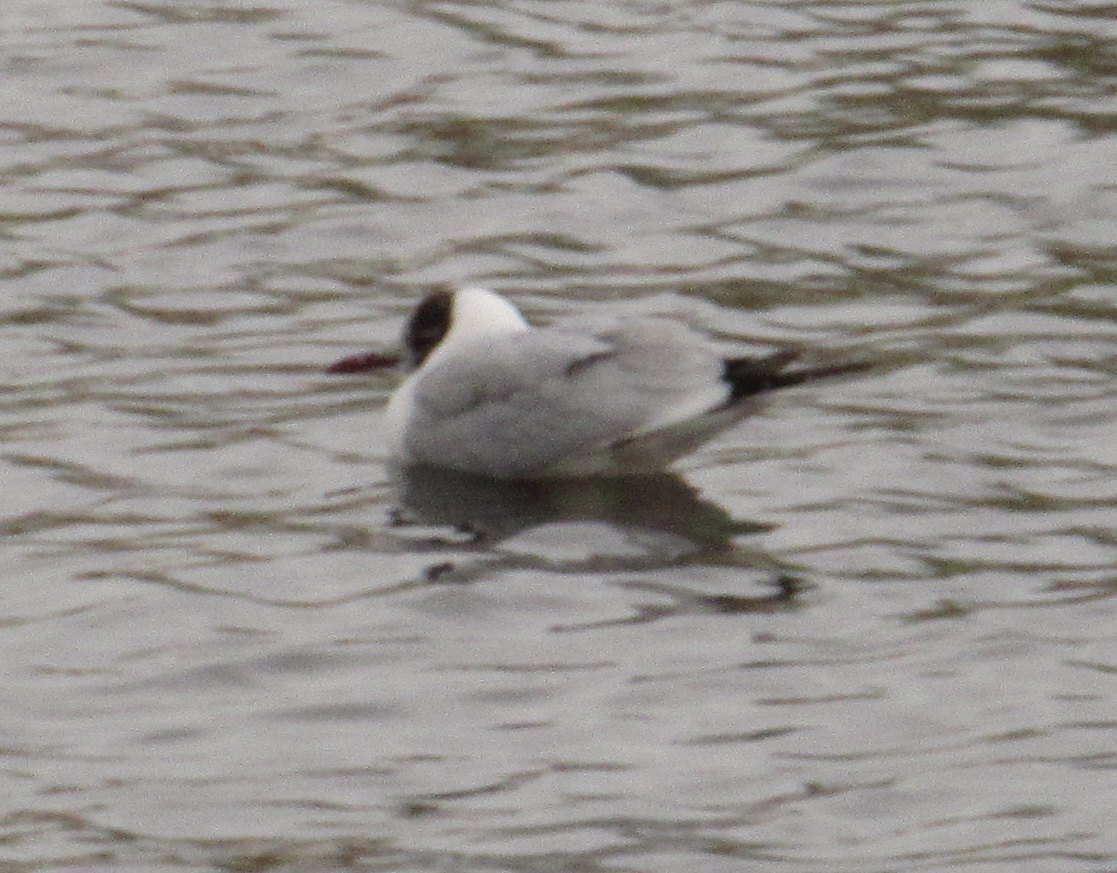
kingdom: Animalia
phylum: Chordata
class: Aves
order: Charadriiformes
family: Laridae
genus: Chroicocephalus
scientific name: Chroicocephalus ridibundus
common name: Black-headed gull
